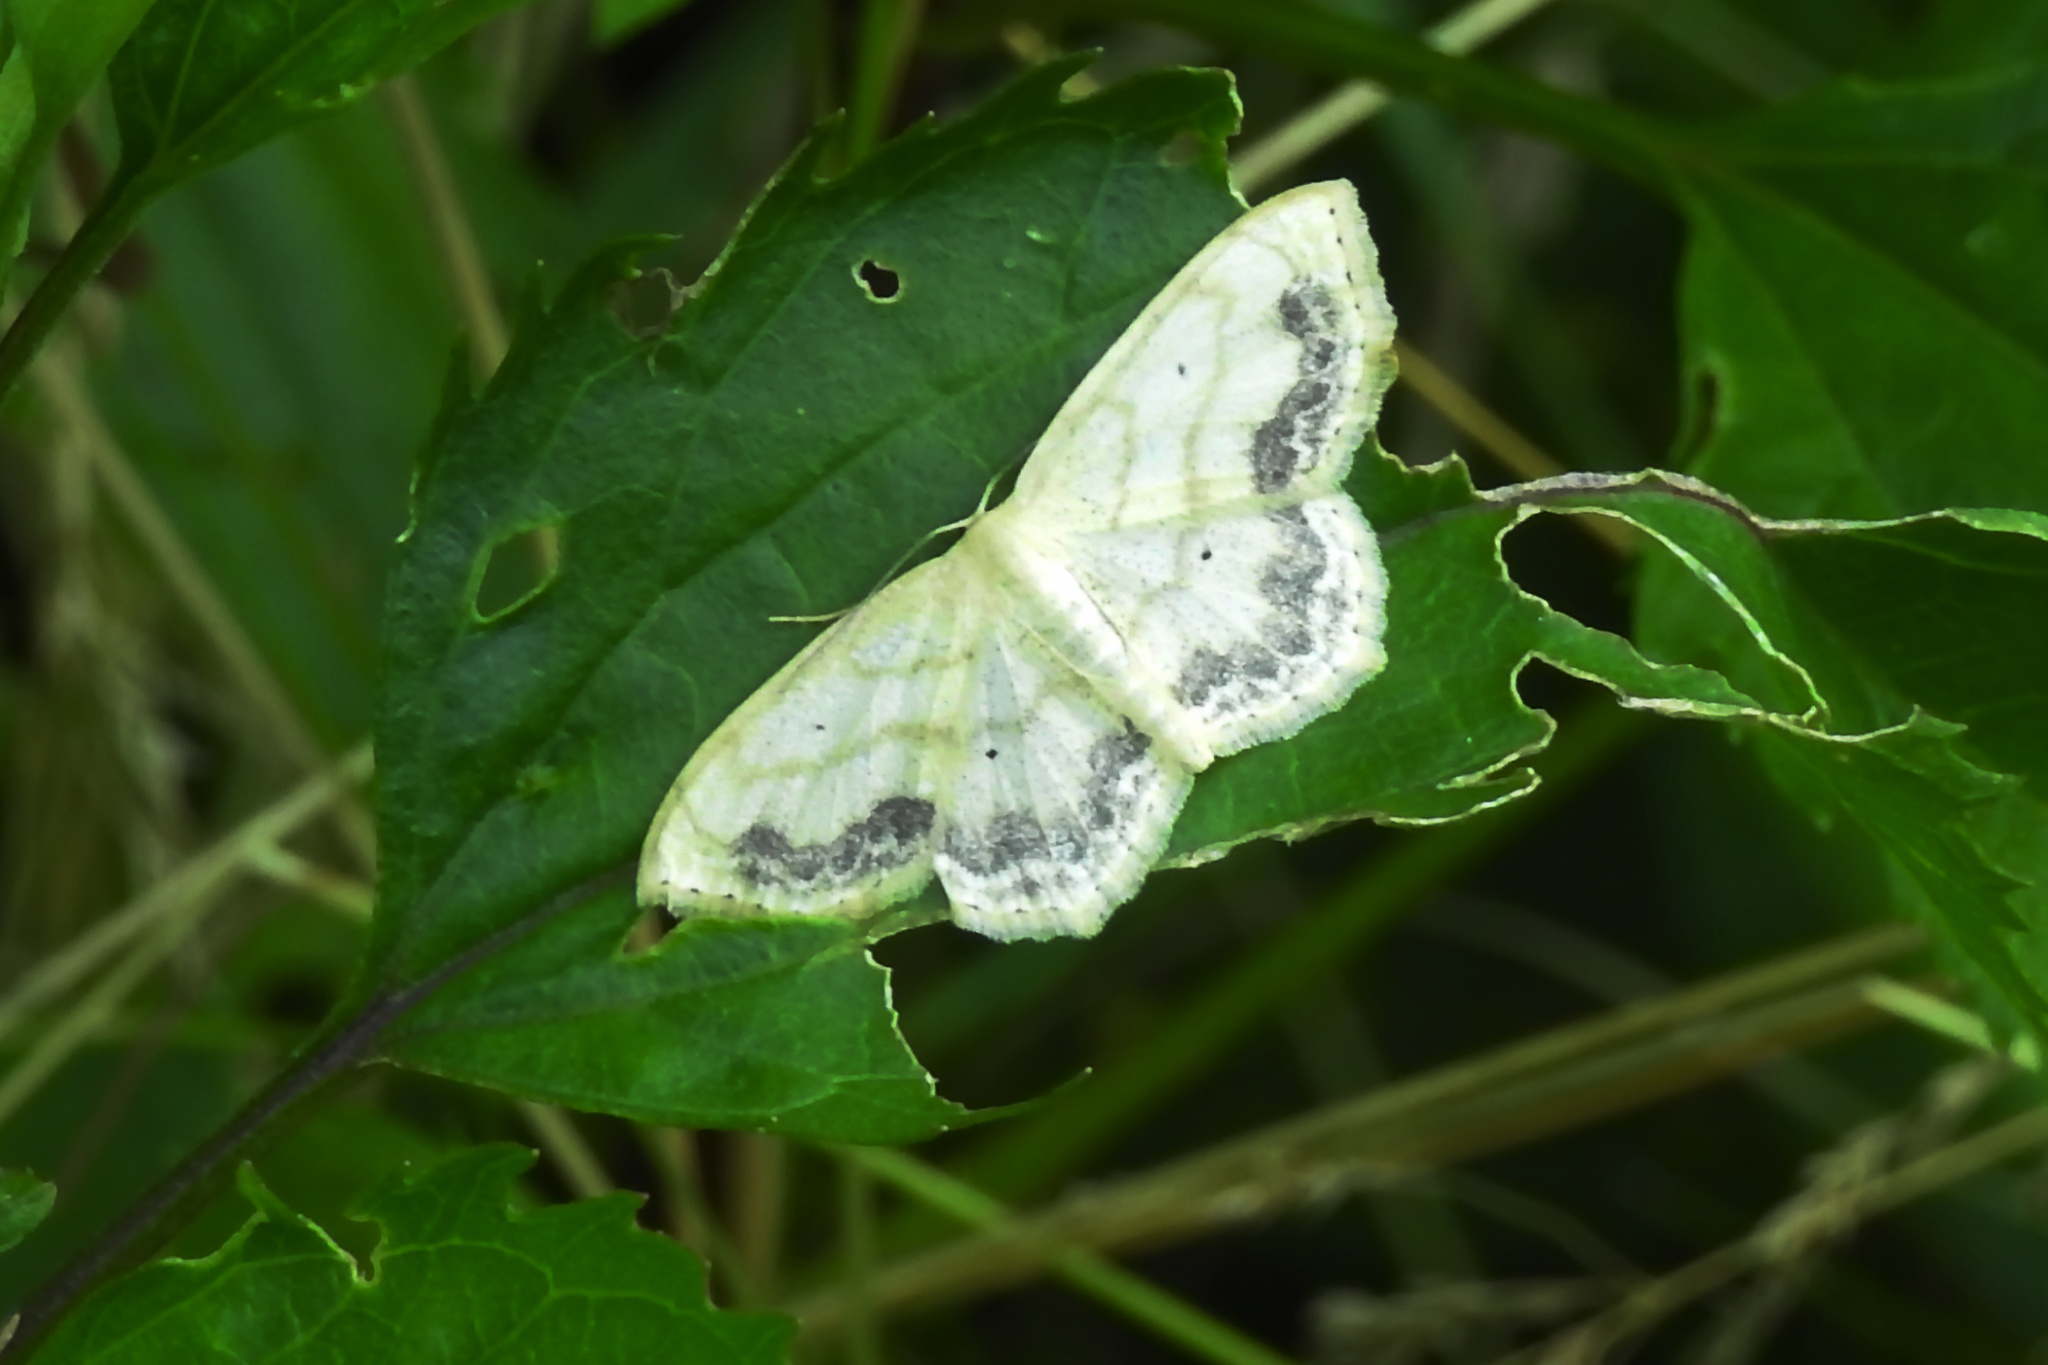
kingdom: Animalia
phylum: Arthropoda
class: Insecta
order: Lepidoptera
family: Geometridae
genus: Scopula
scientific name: Scopula limboundata
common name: Large lace border
